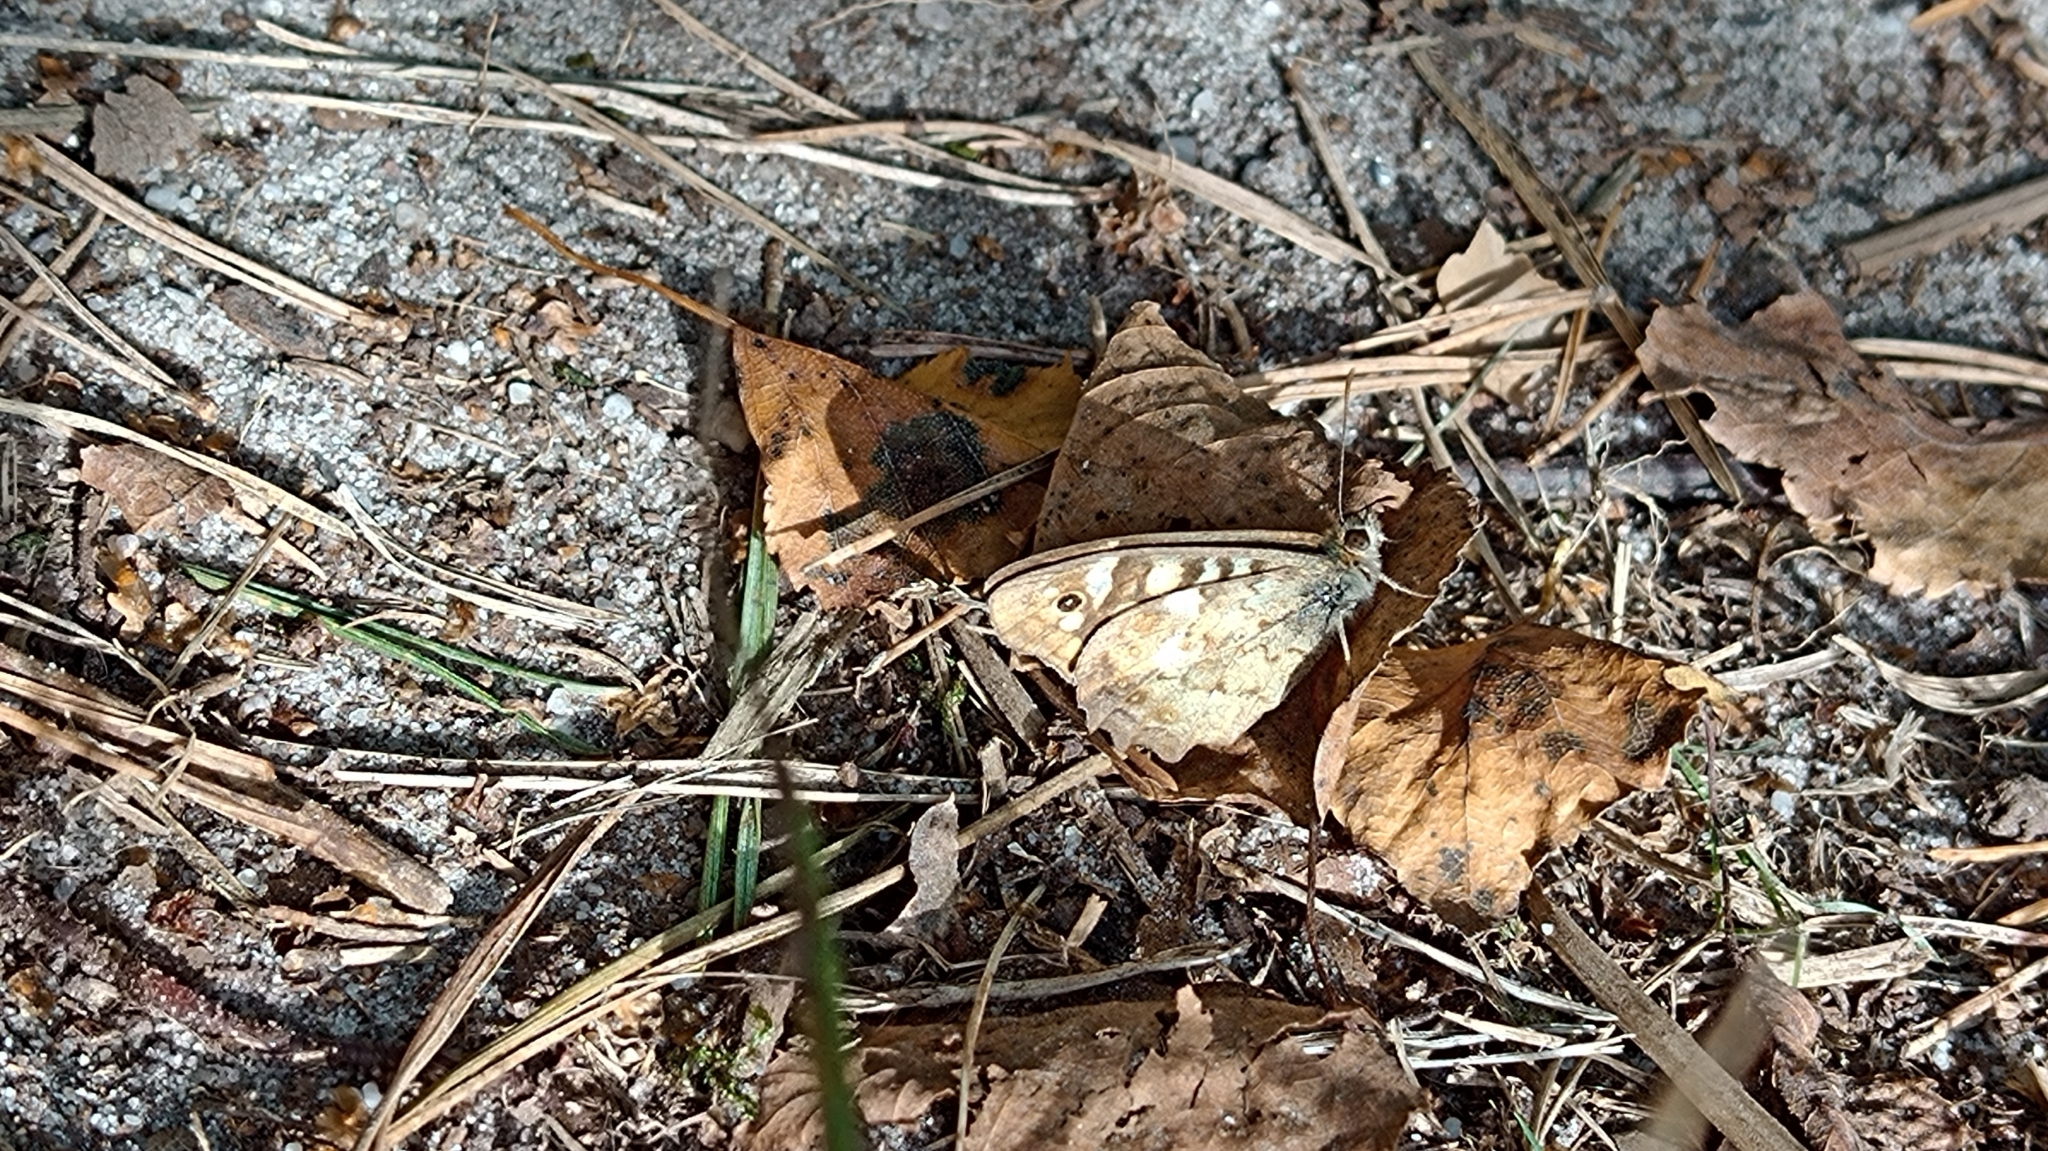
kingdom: Animalia
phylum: Arthropoda
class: Insecta
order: Lepidoptera
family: Nymphalidae
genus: Pararge
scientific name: Pararge aegeria
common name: Speckled wood
